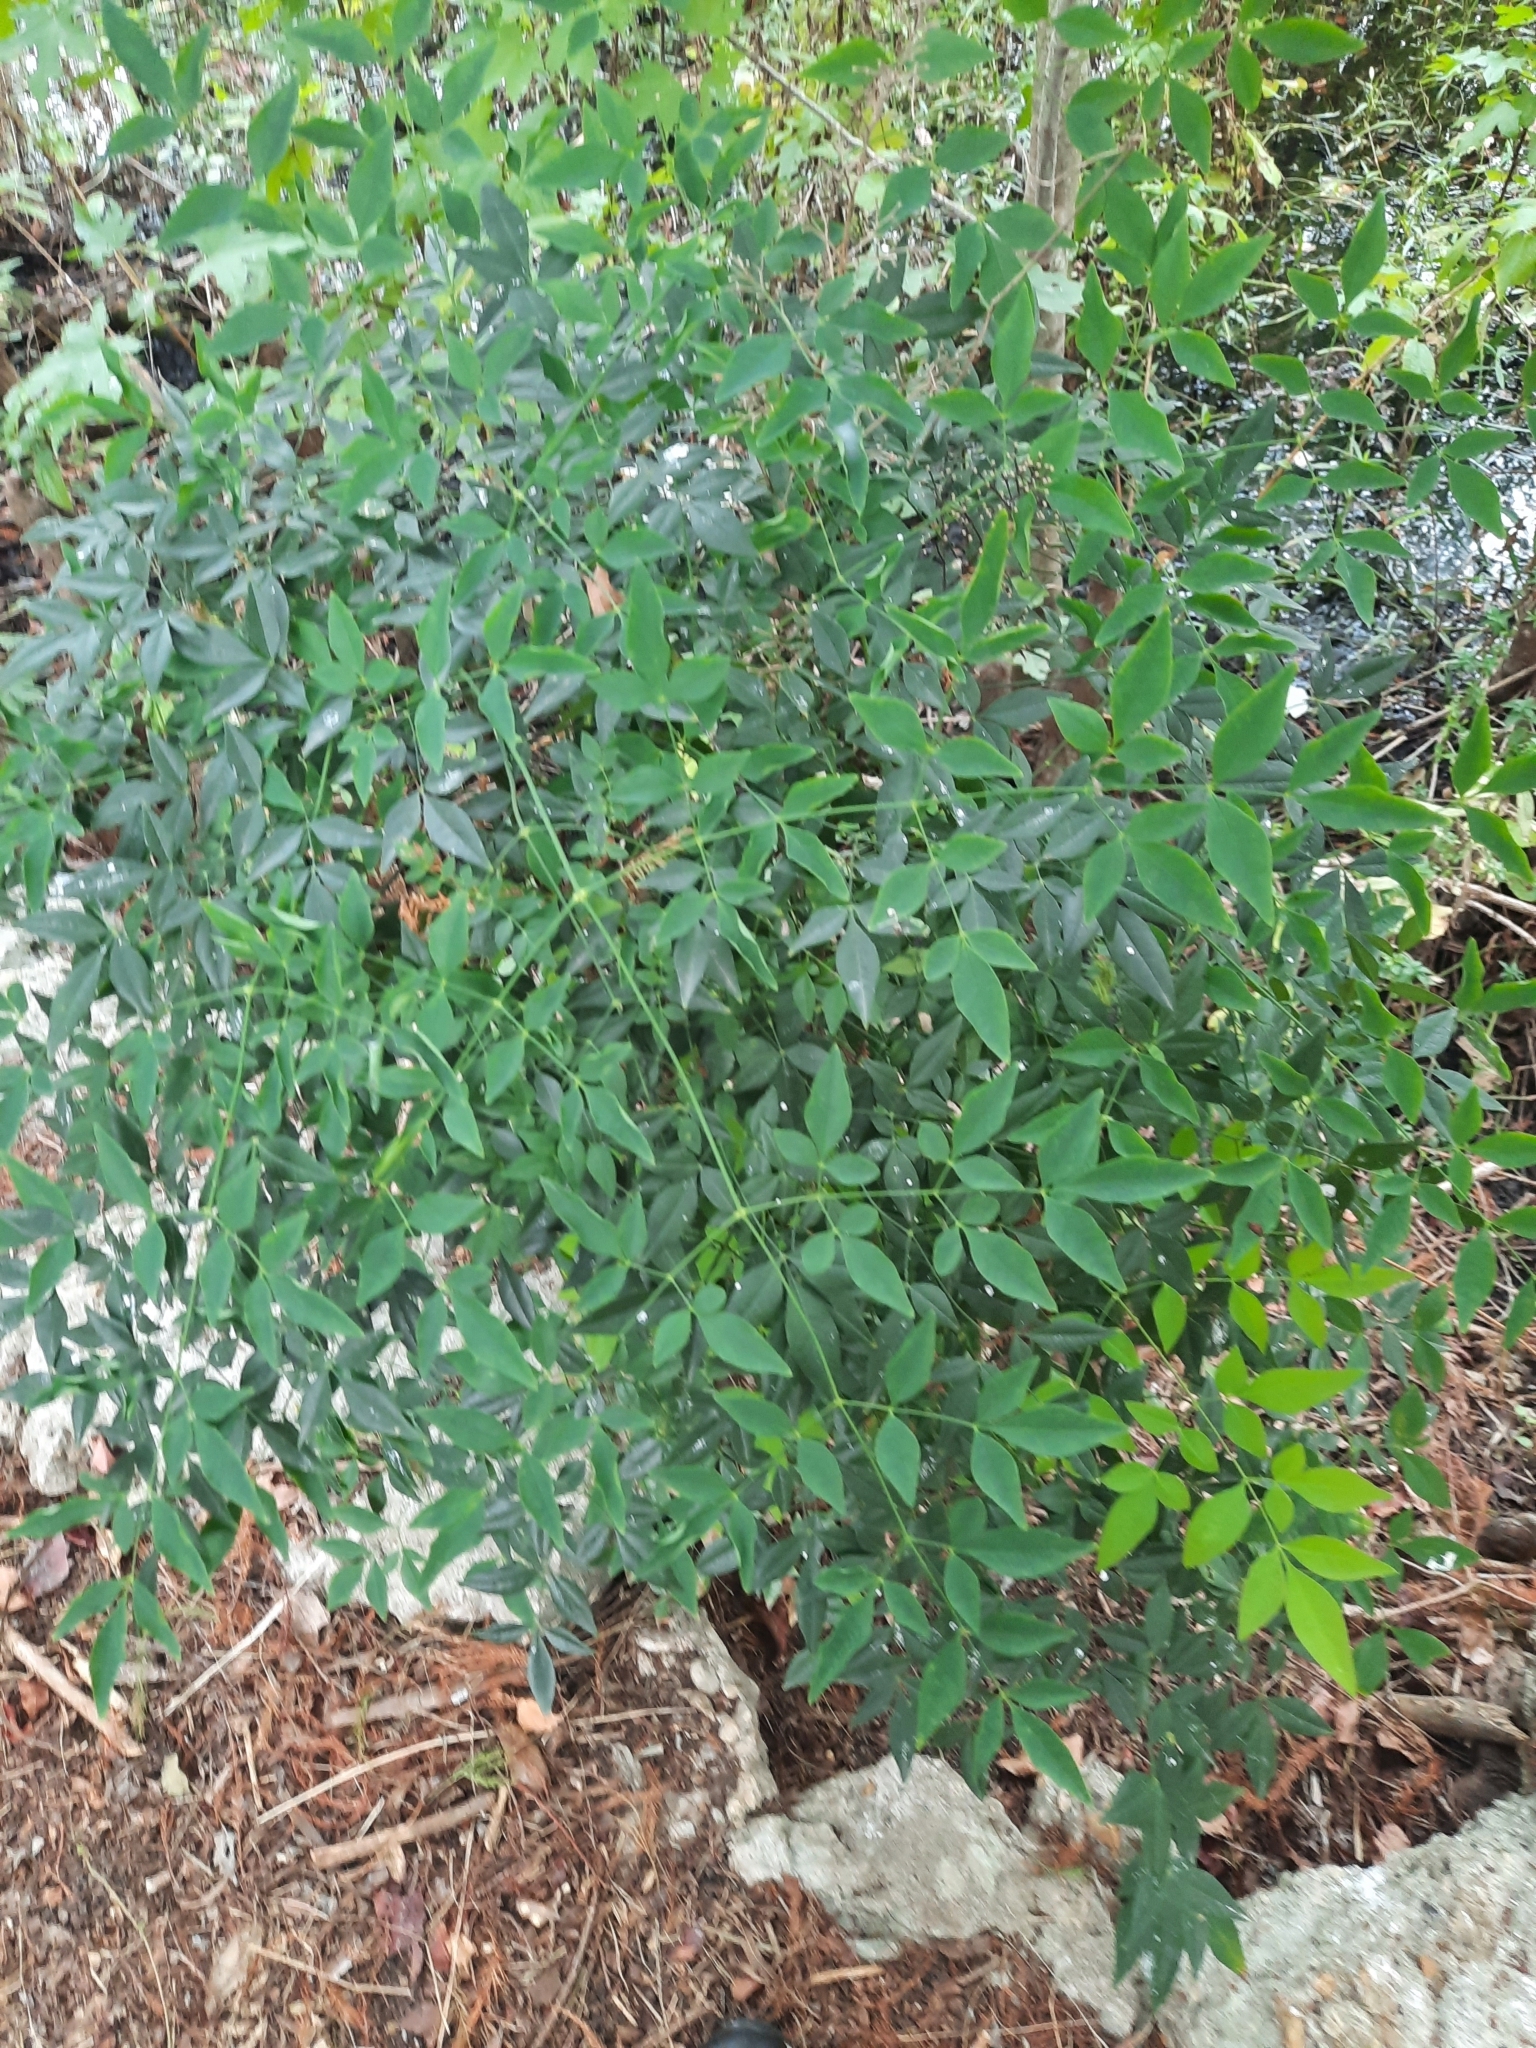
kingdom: Plantae
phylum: Tracheophyta
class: Magnoliopsida
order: Ranunculales
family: Berberidaceae
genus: Nandina
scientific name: Nandina domestica
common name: Sacred bamboo
